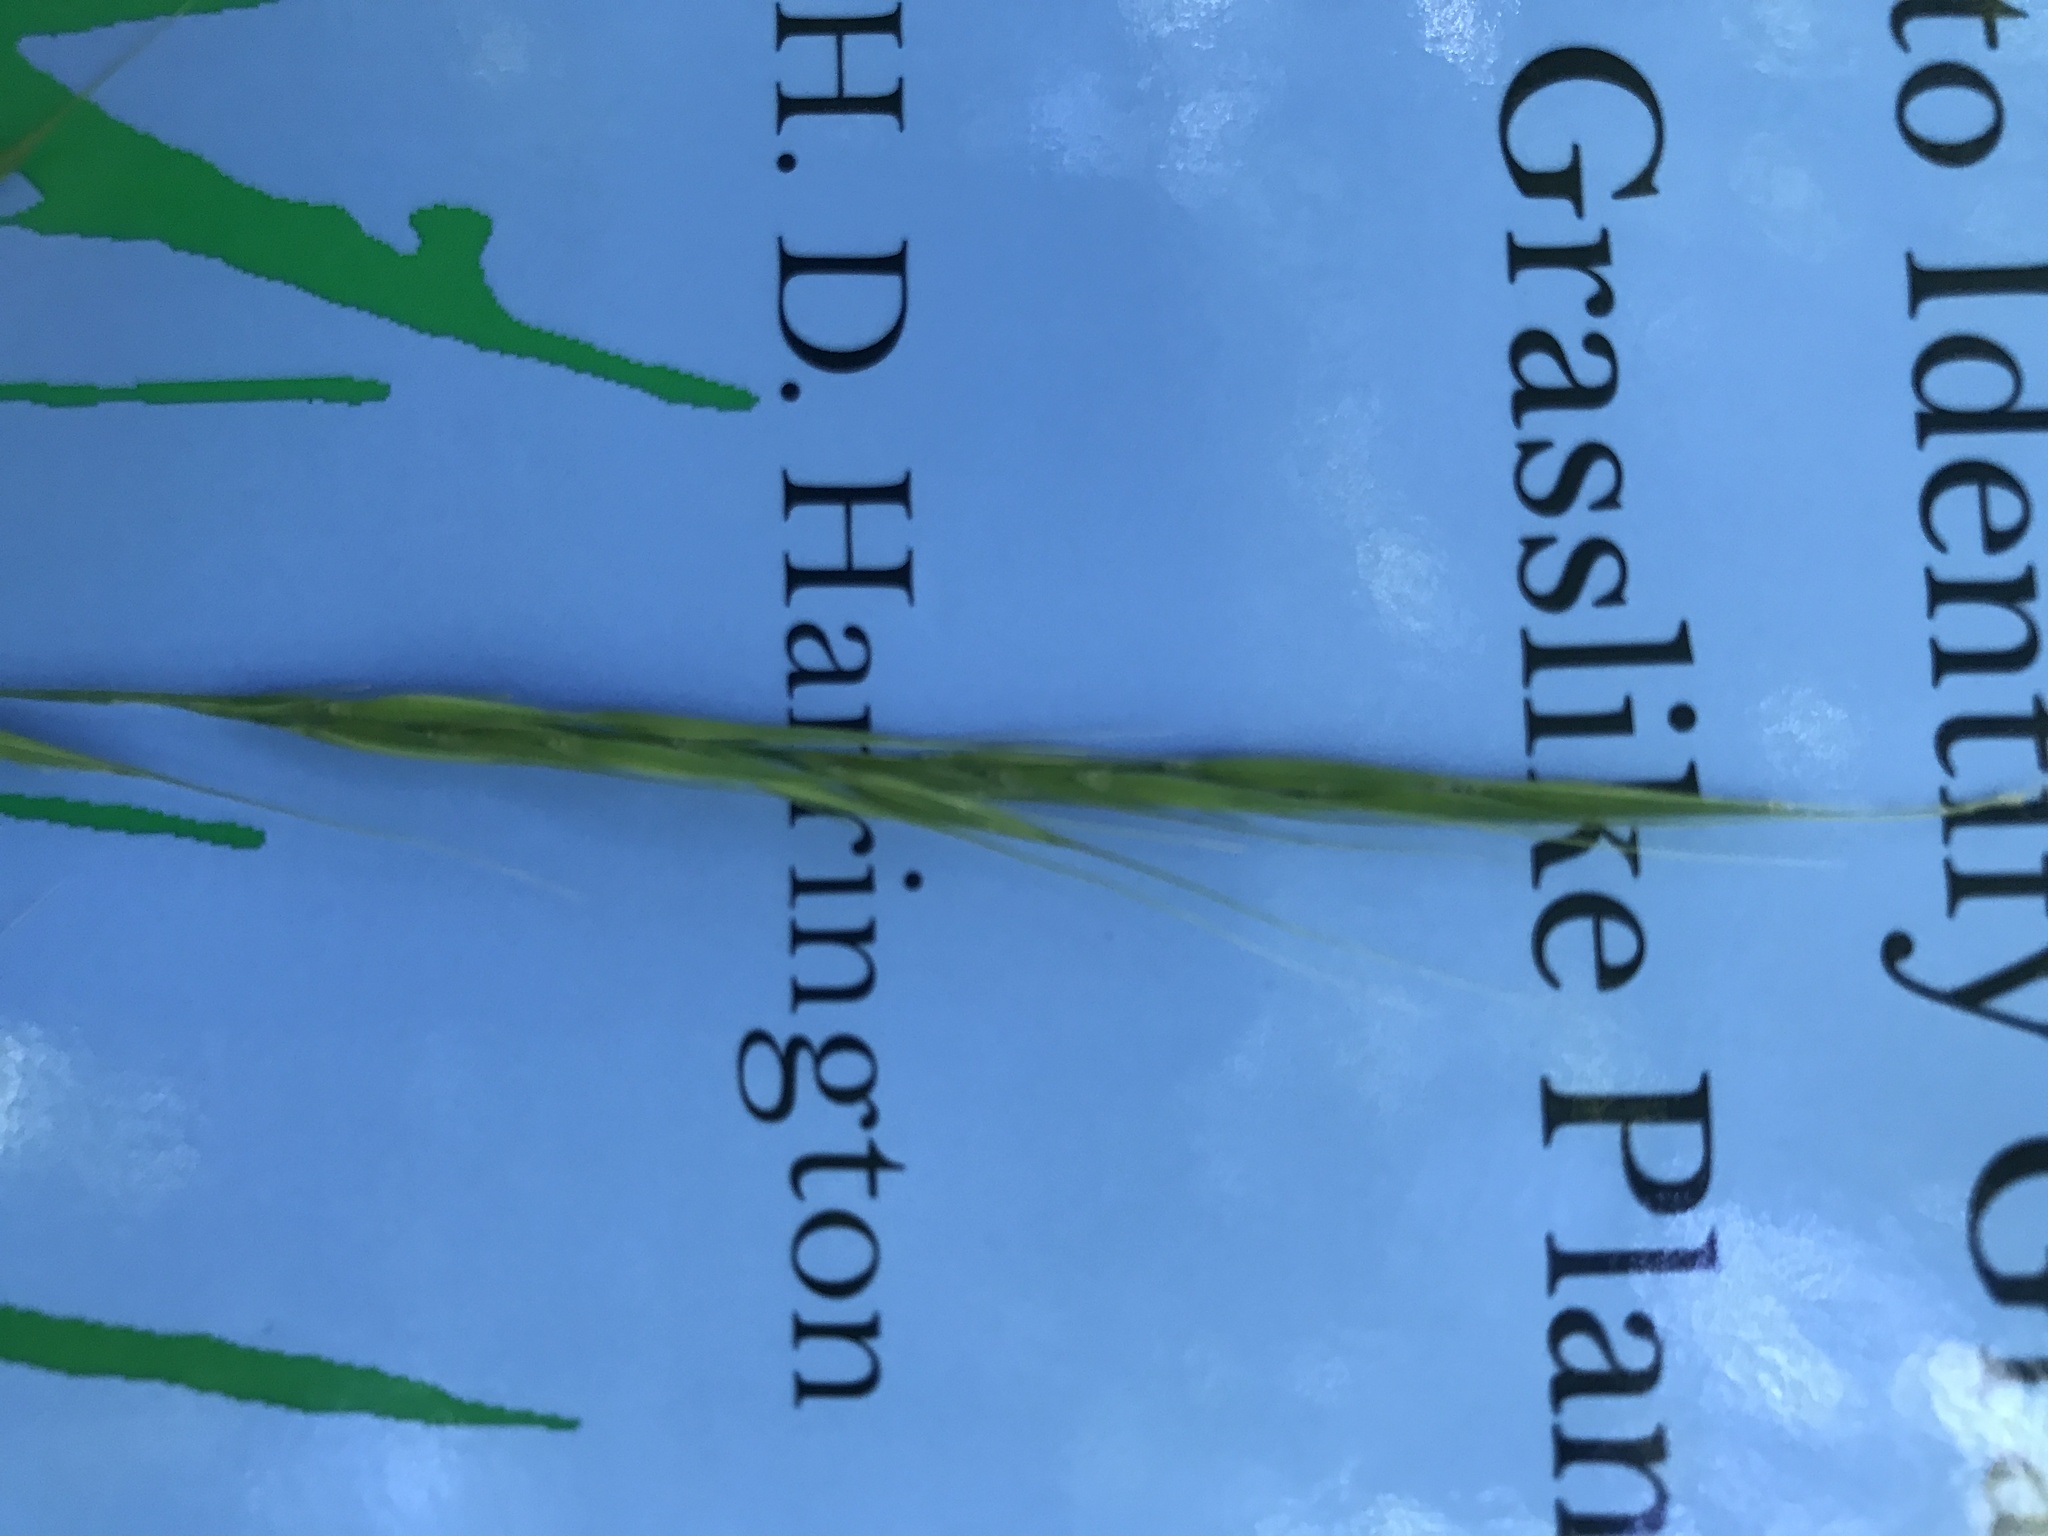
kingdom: Plantae
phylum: Tracheophyta
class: Liliopsida
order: Poales
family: Poaceae
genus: Brachyelytrum
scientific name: Brachyelytrum erectum
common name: Bearded shorthusk
